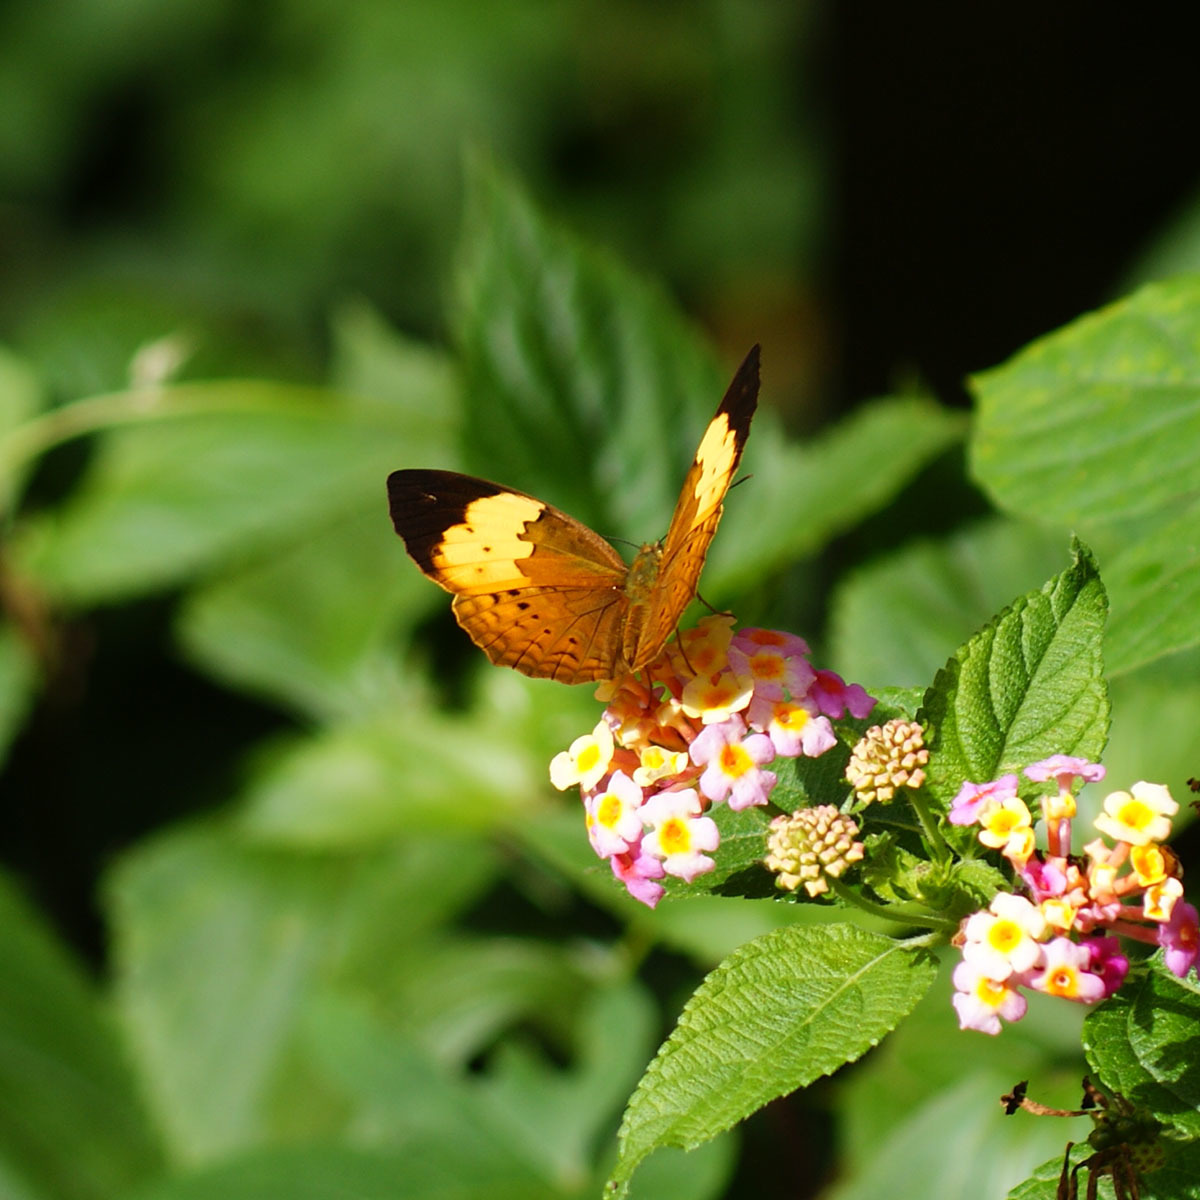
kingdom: Animalia
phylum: Arthropoda
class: Insecta
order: Lepidoptera
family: Nymphalidae
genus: Cupha
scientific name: Cupha erymanthis
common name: Rustic
